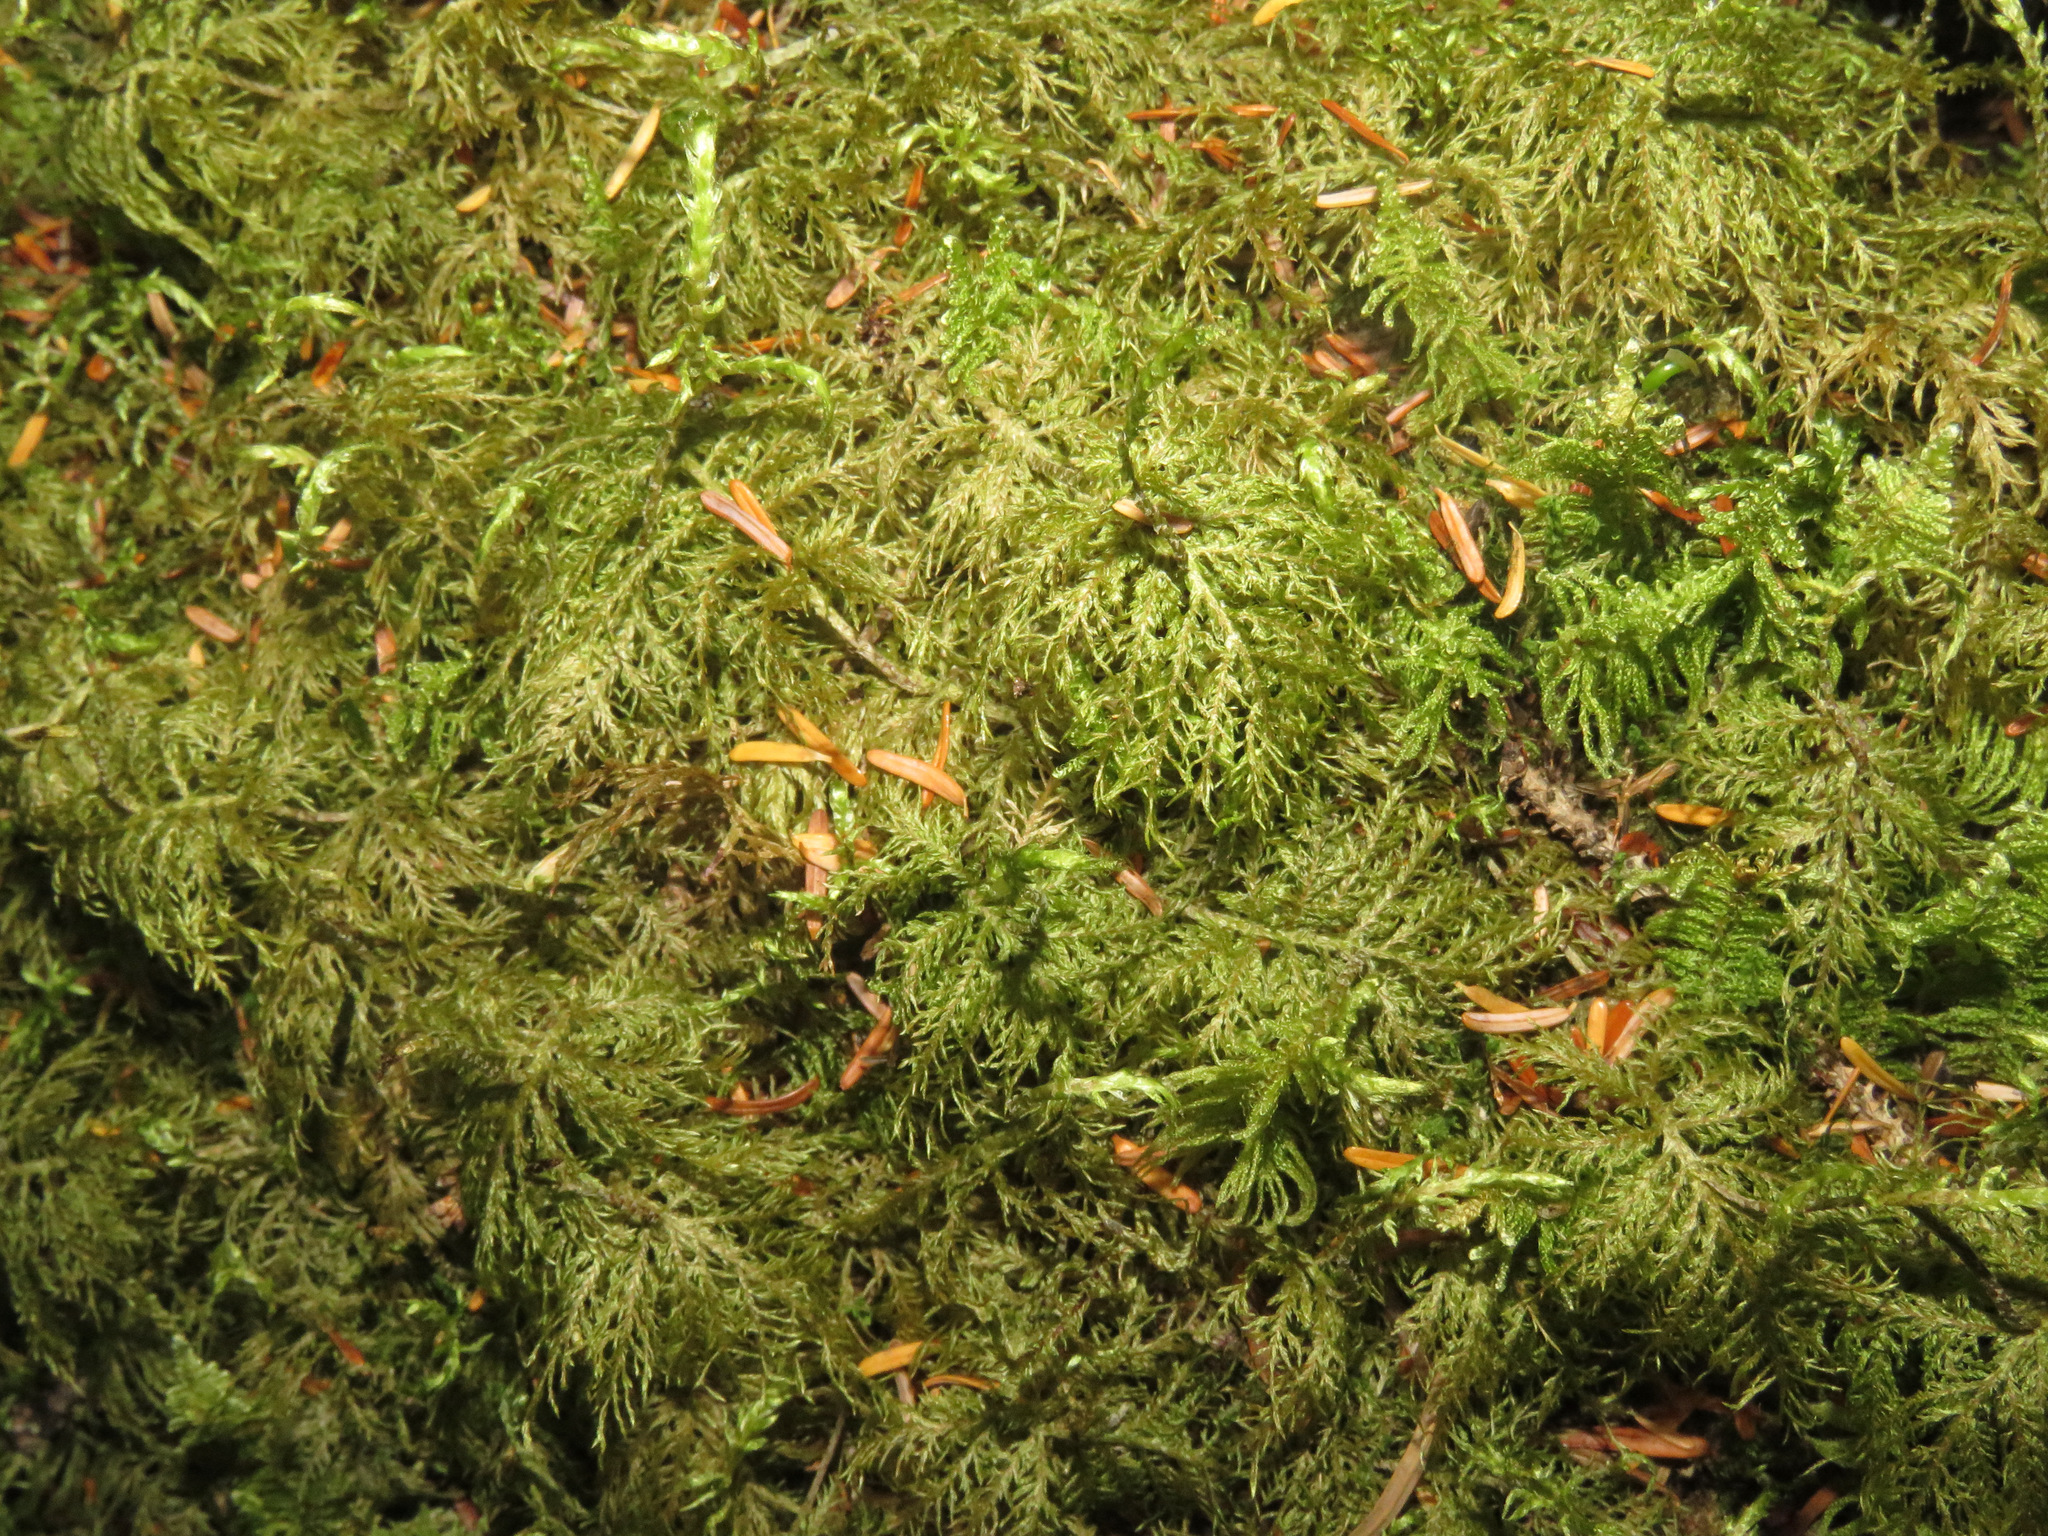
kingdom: Plantae
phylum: Bryophyta
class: Bryopsida
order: Hypnales
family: Hylocomiaceae
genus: Hylocomium
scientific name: Hylocomium splendens
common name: Stairstep moss
